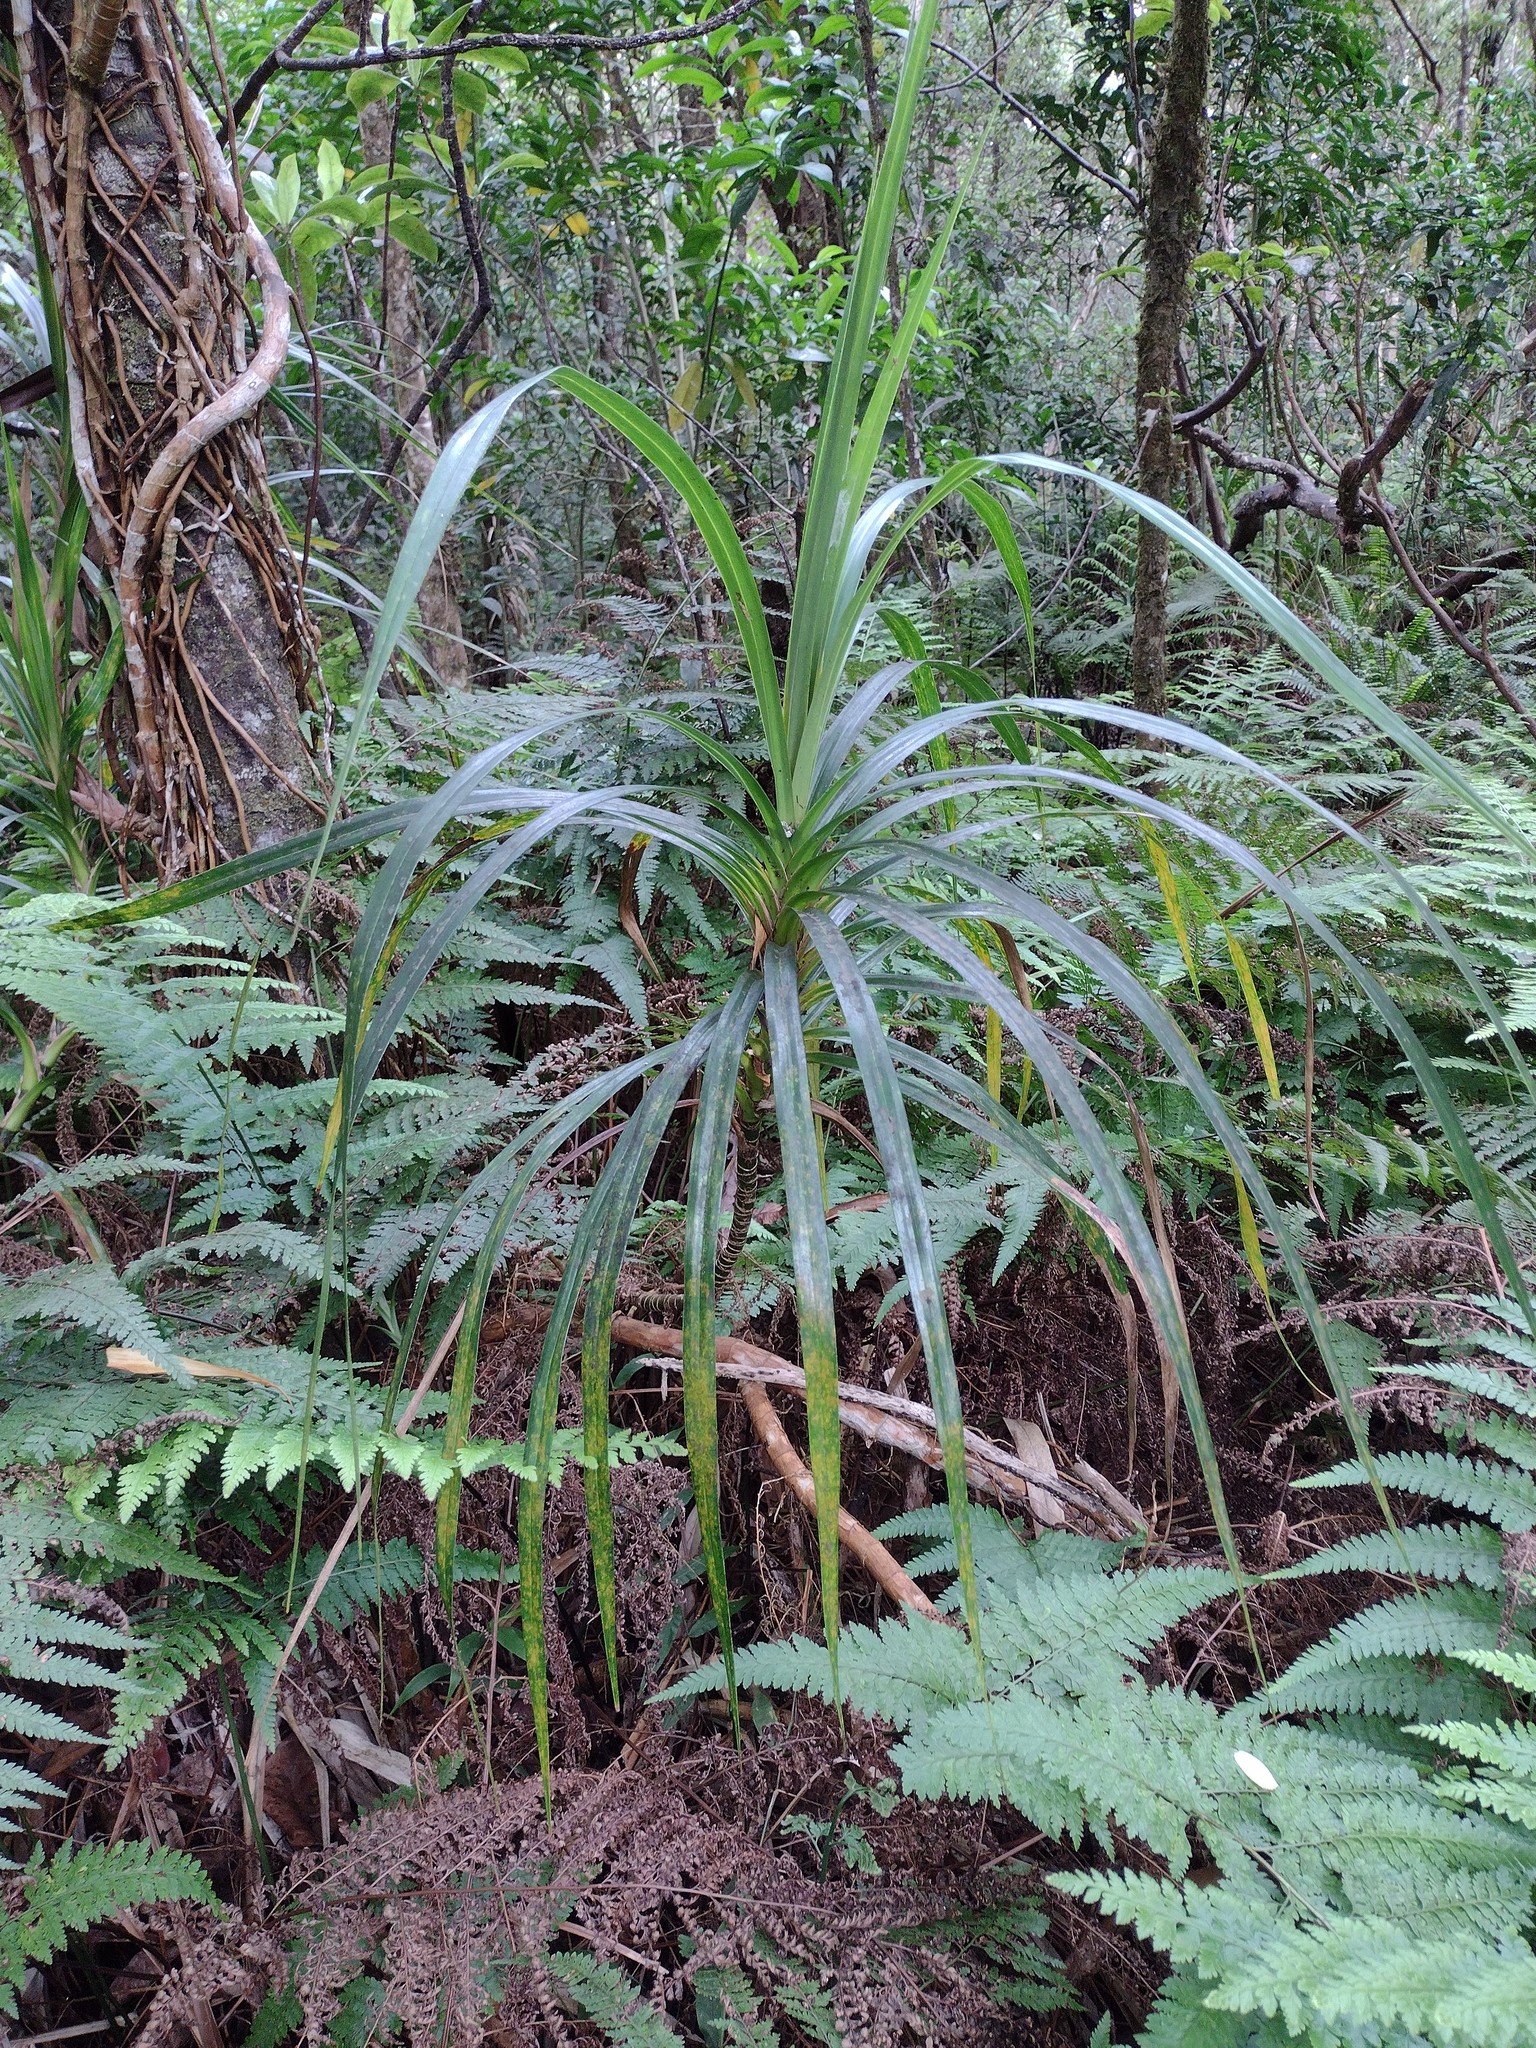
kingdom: Plantae
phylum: Tracheophyta
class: Liliopsida
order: Pandanales
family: Pandanaceae
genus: Freycinetia
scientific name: Freycinetia arborea
